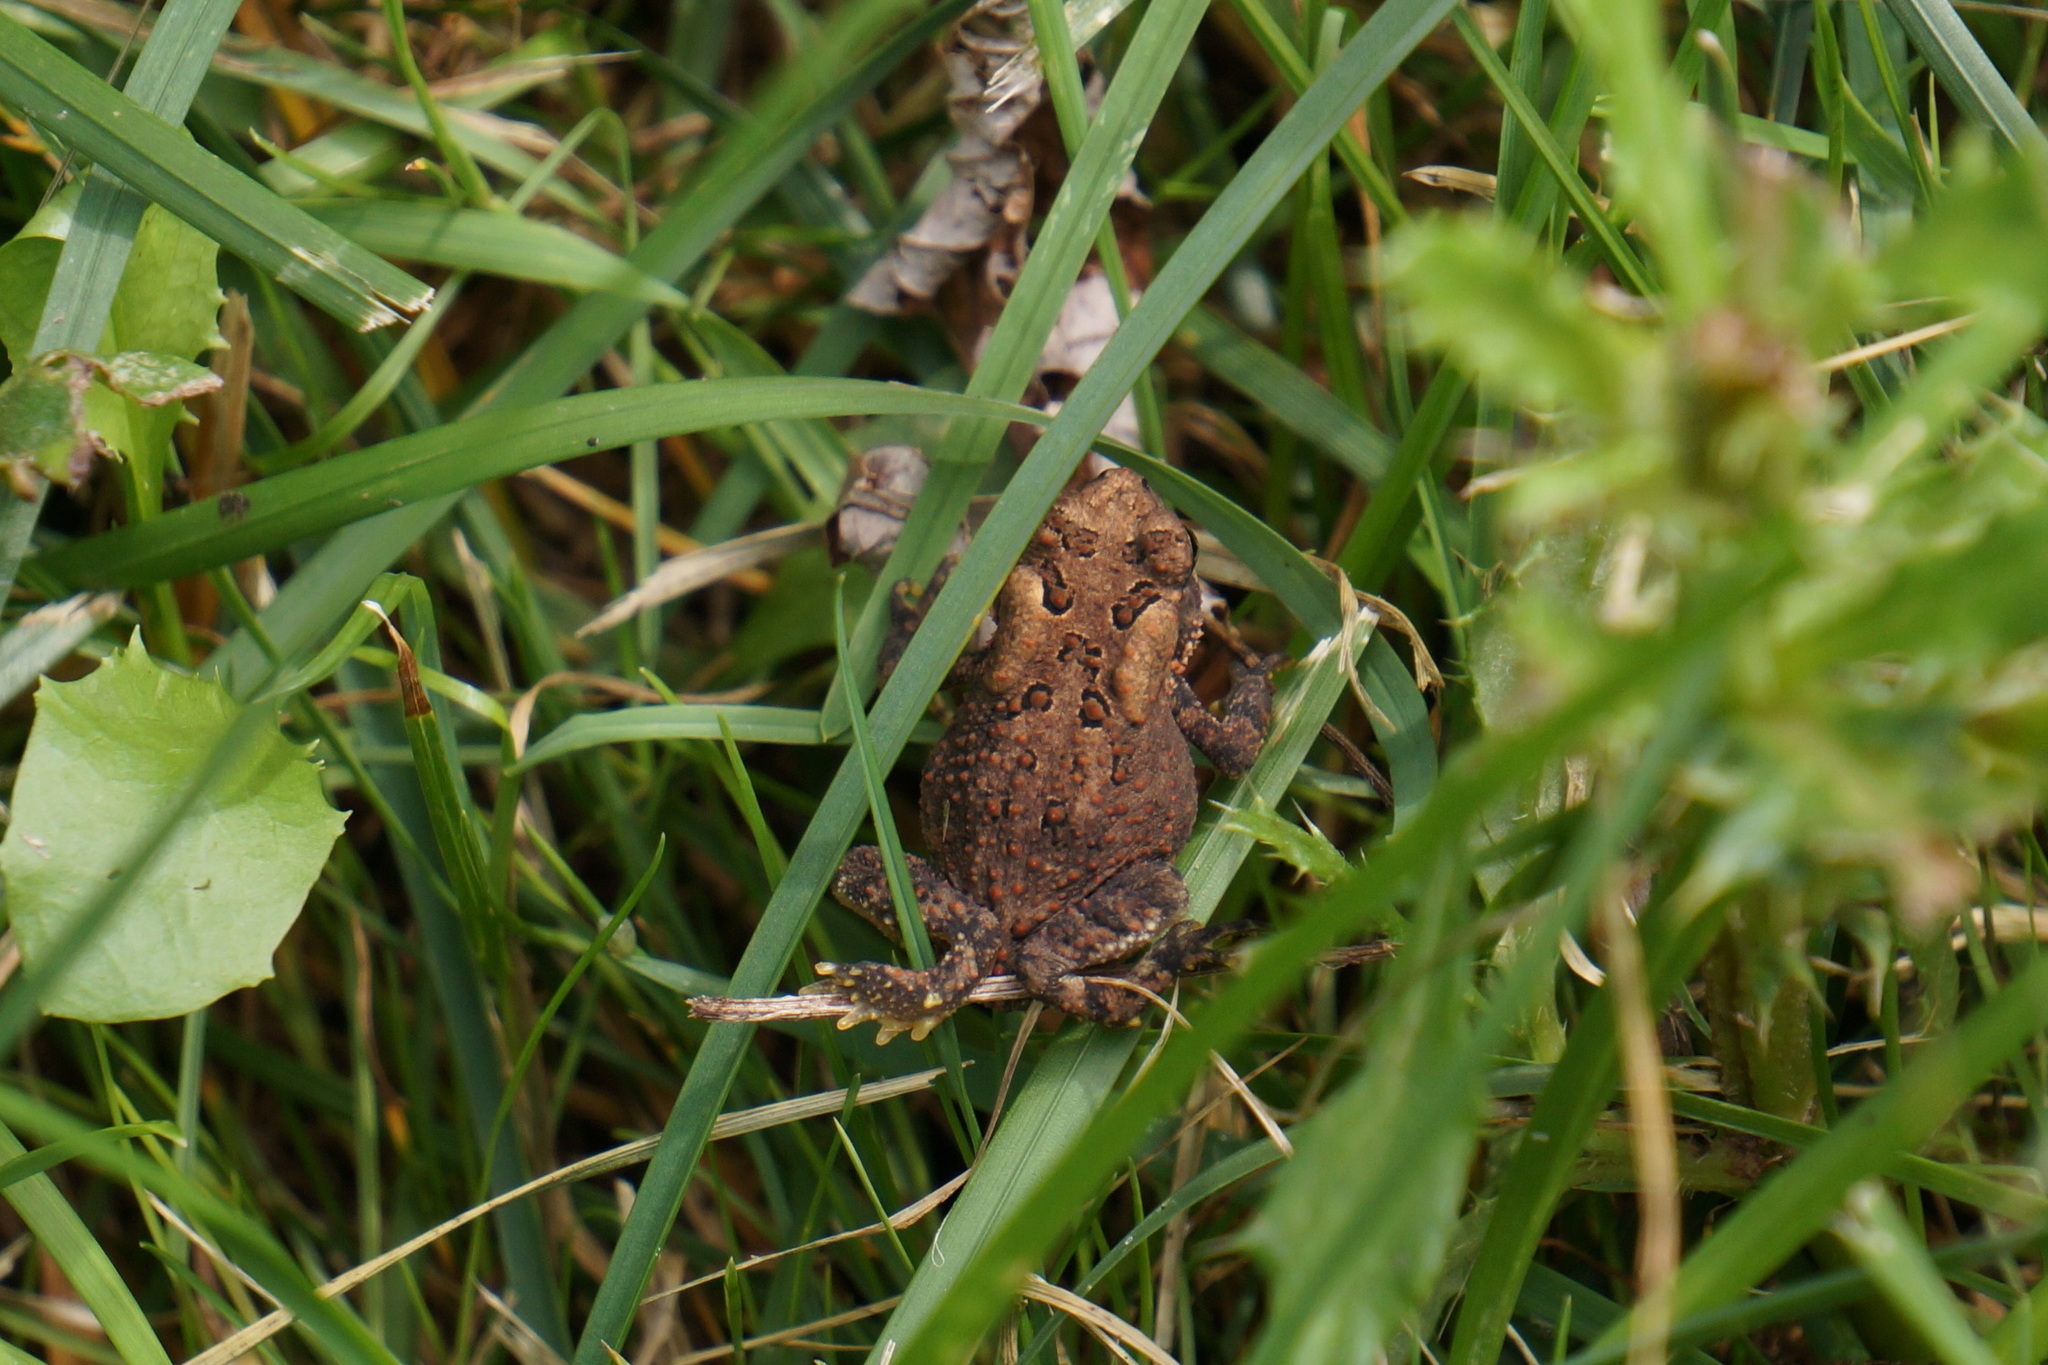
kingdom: Animalia
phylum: Chordata
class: Amphibia
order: Anura
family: Bufonidae
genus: Anaxyrus
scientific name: Anaxyrus americanus
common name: American toad
